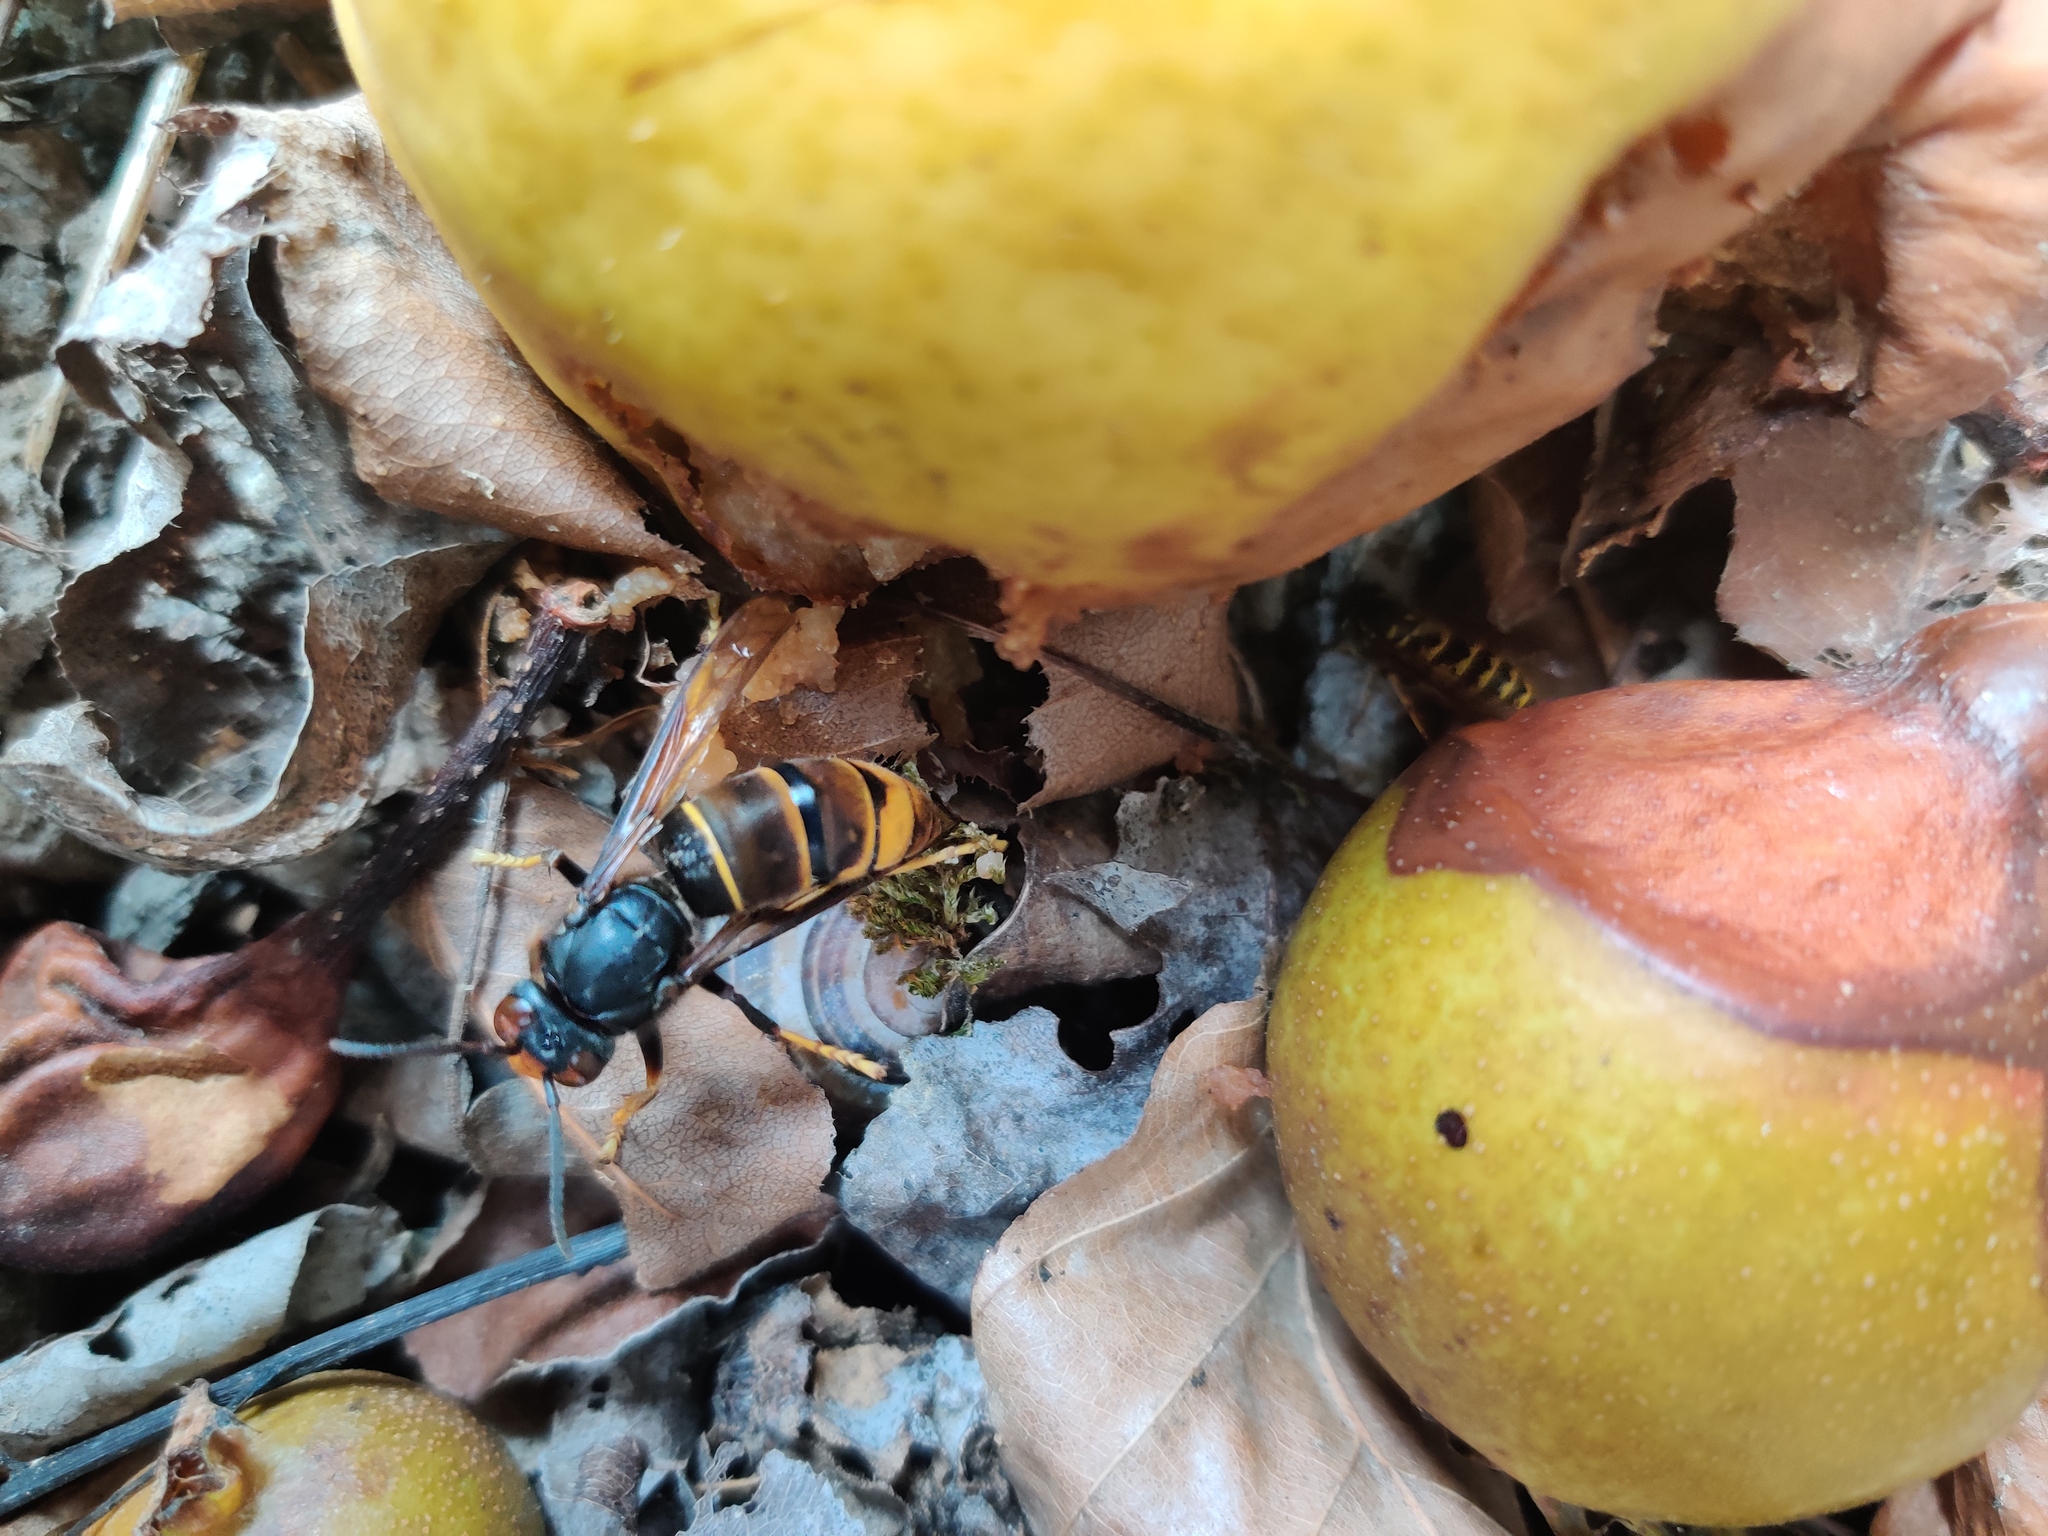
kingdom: Animalia
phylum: Arthropoda
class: Insecta
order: Hymenoptera
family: Vespidae
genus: Vespa
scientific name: Vespa velutina
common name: Asian hornet
